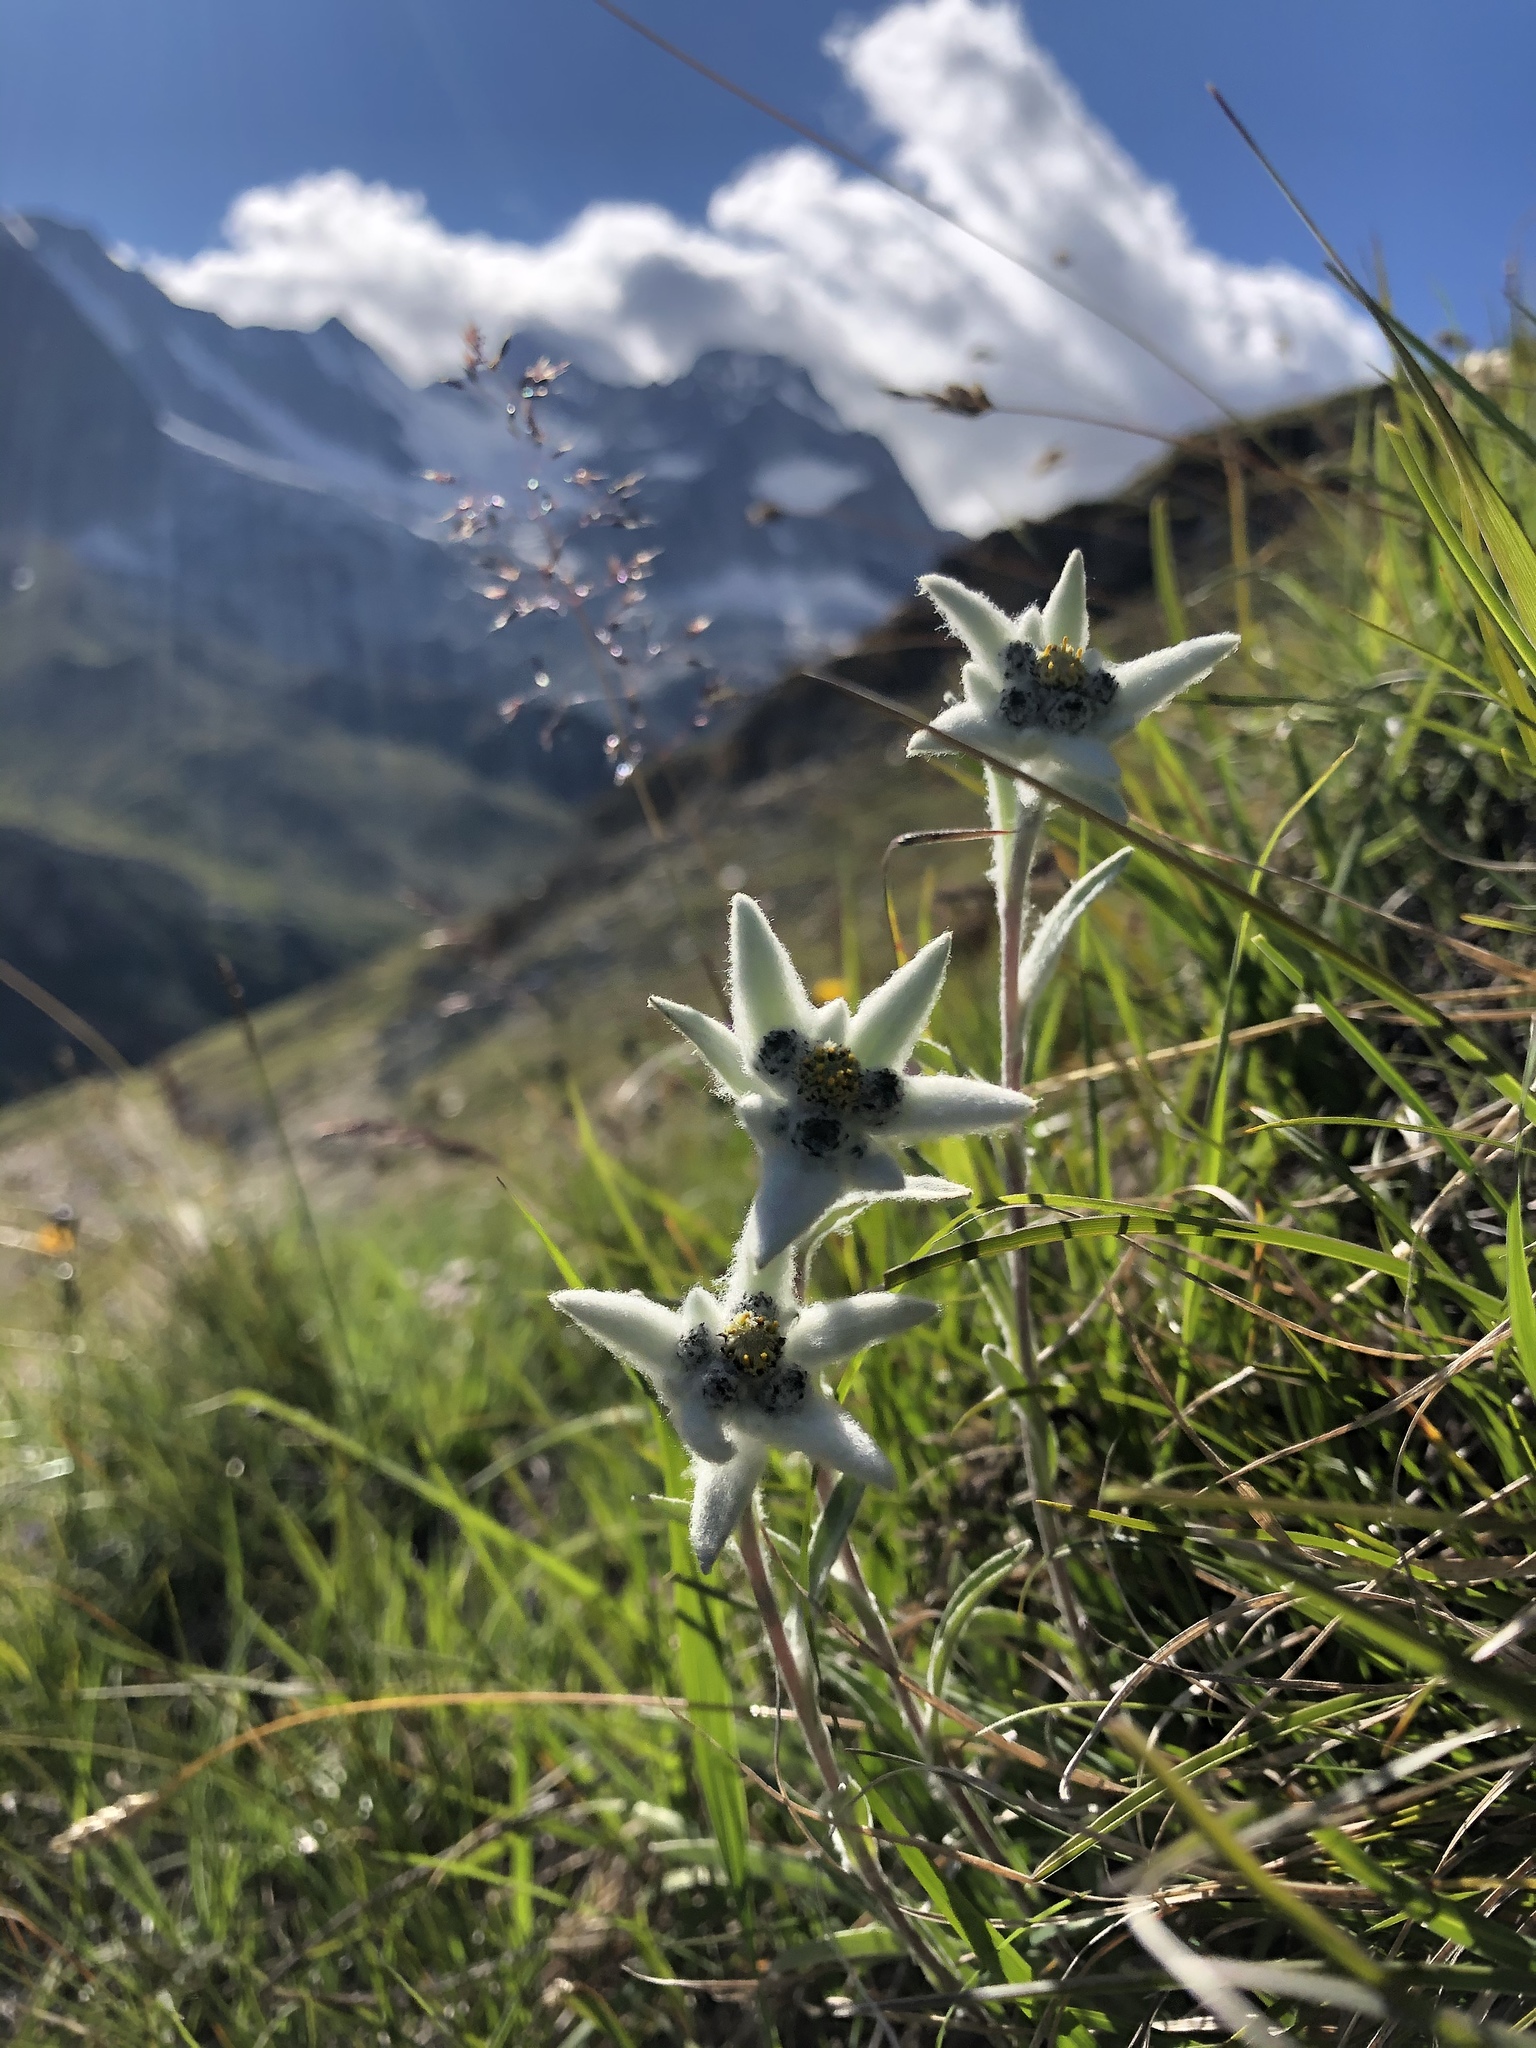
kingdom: Plantae
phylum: Tracheophyta
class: Magnoliopsida
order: Asterales
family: Asteraceae
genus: Leontopodium
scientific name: Leontopodium nivale
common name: Edelweiss
